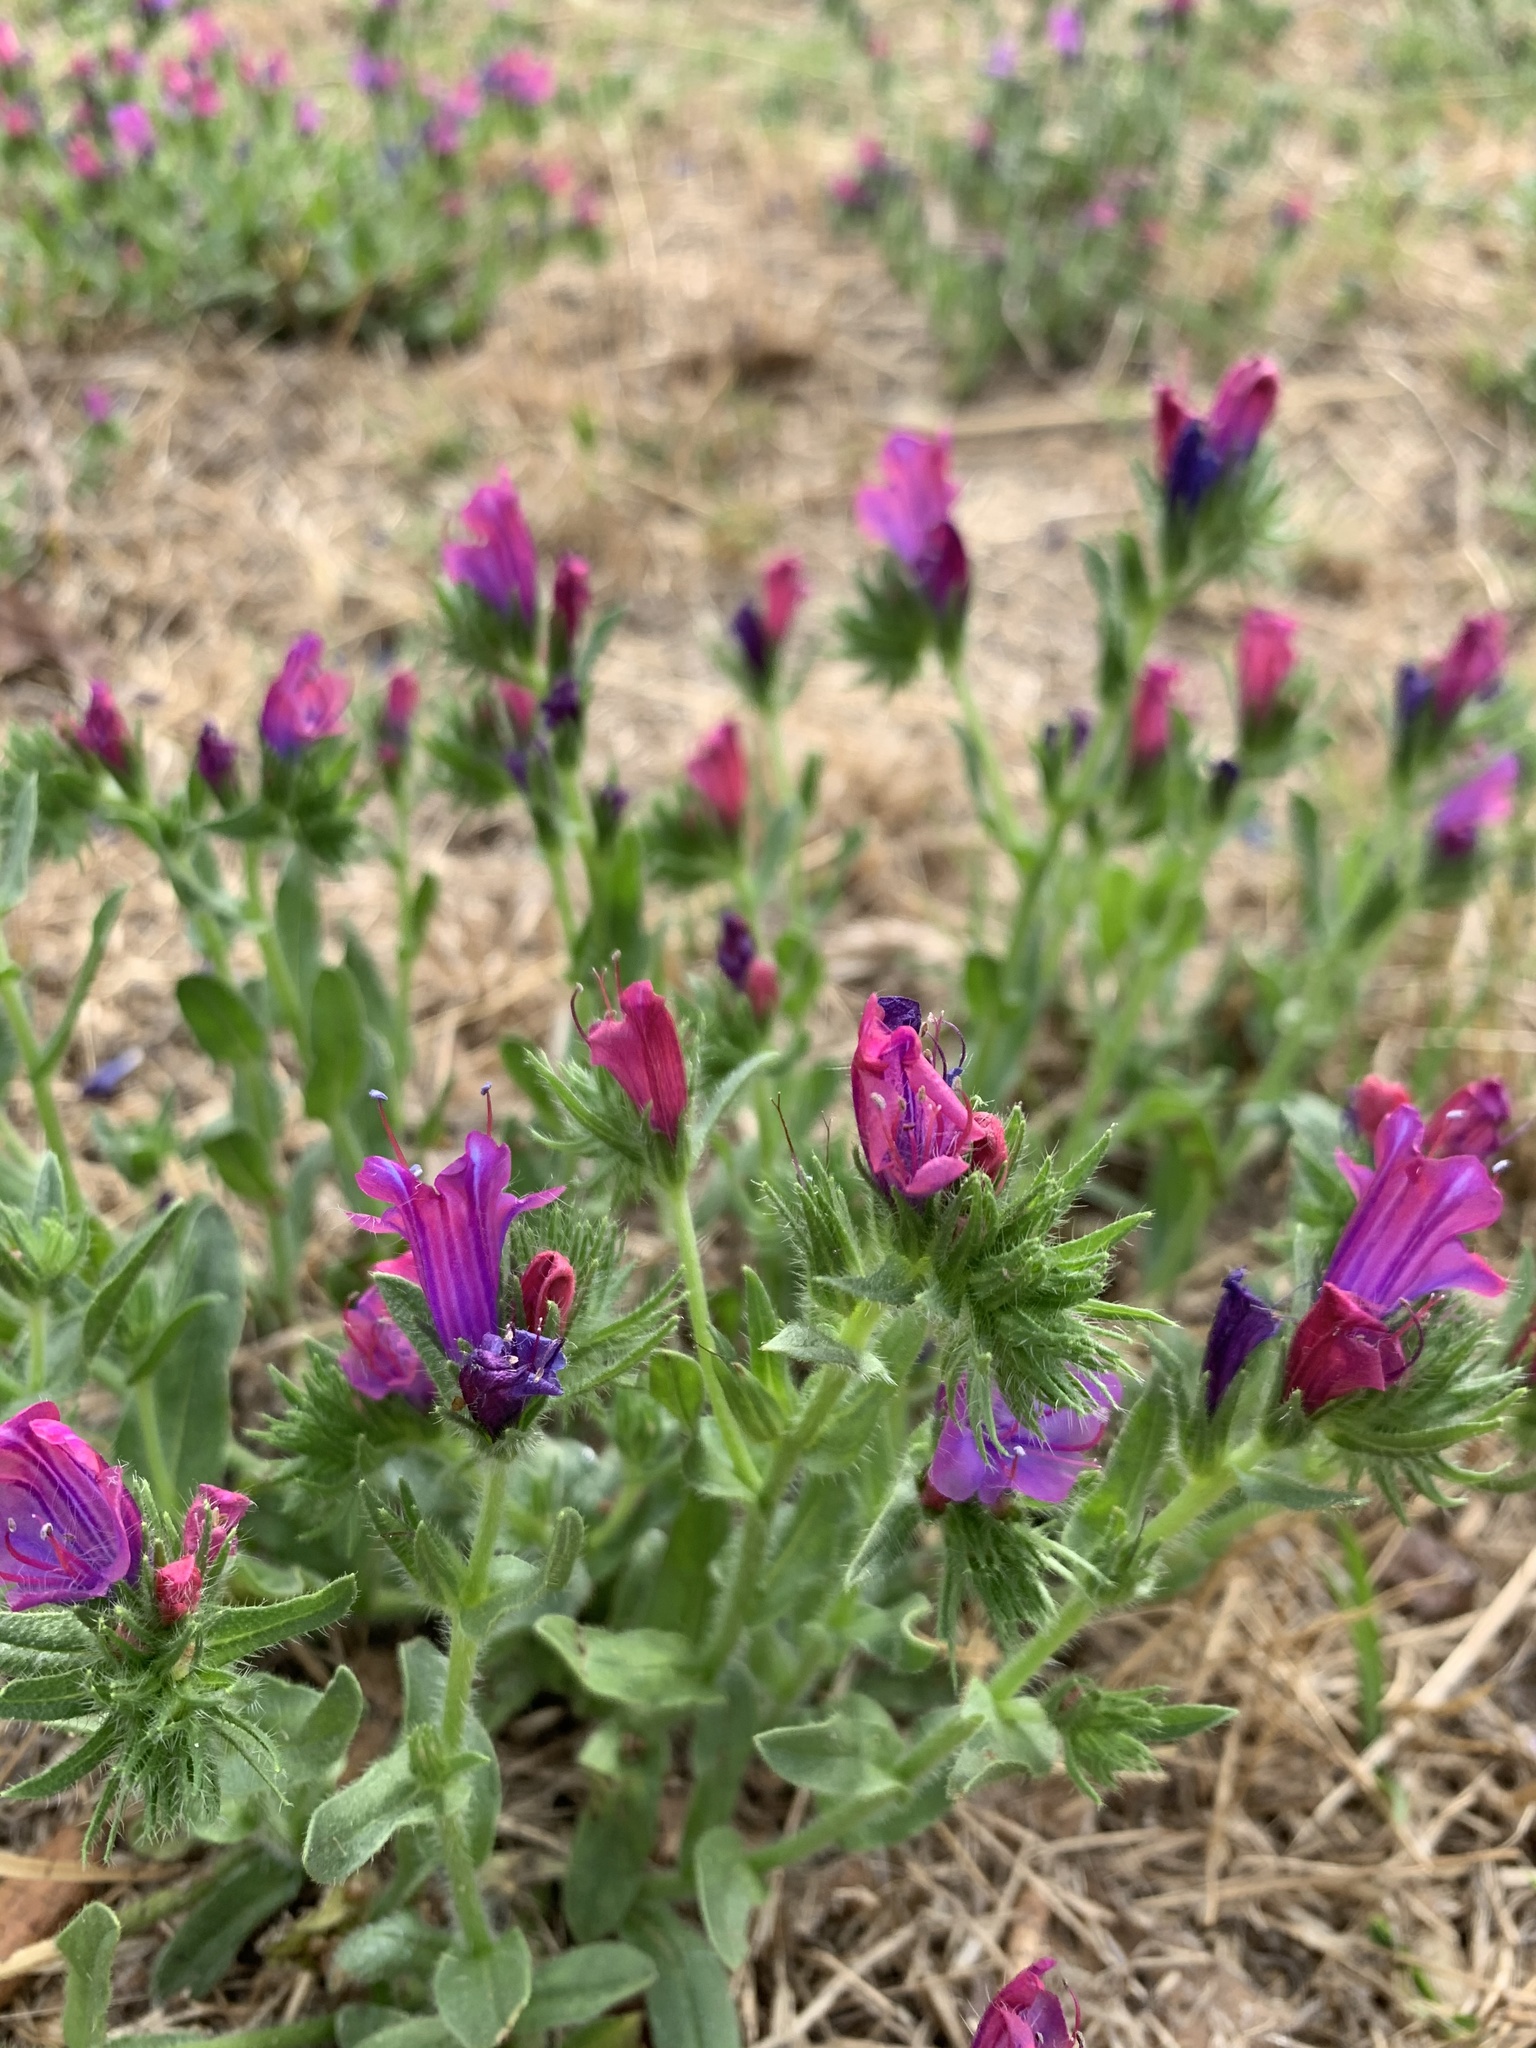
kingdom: Plantae
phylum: Tracheophyta
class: Magnoliopsida
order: Boraginales
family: Boraginaceae
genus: Echium
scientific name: Echium plantagineum
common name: Purple viper's-bugloss
